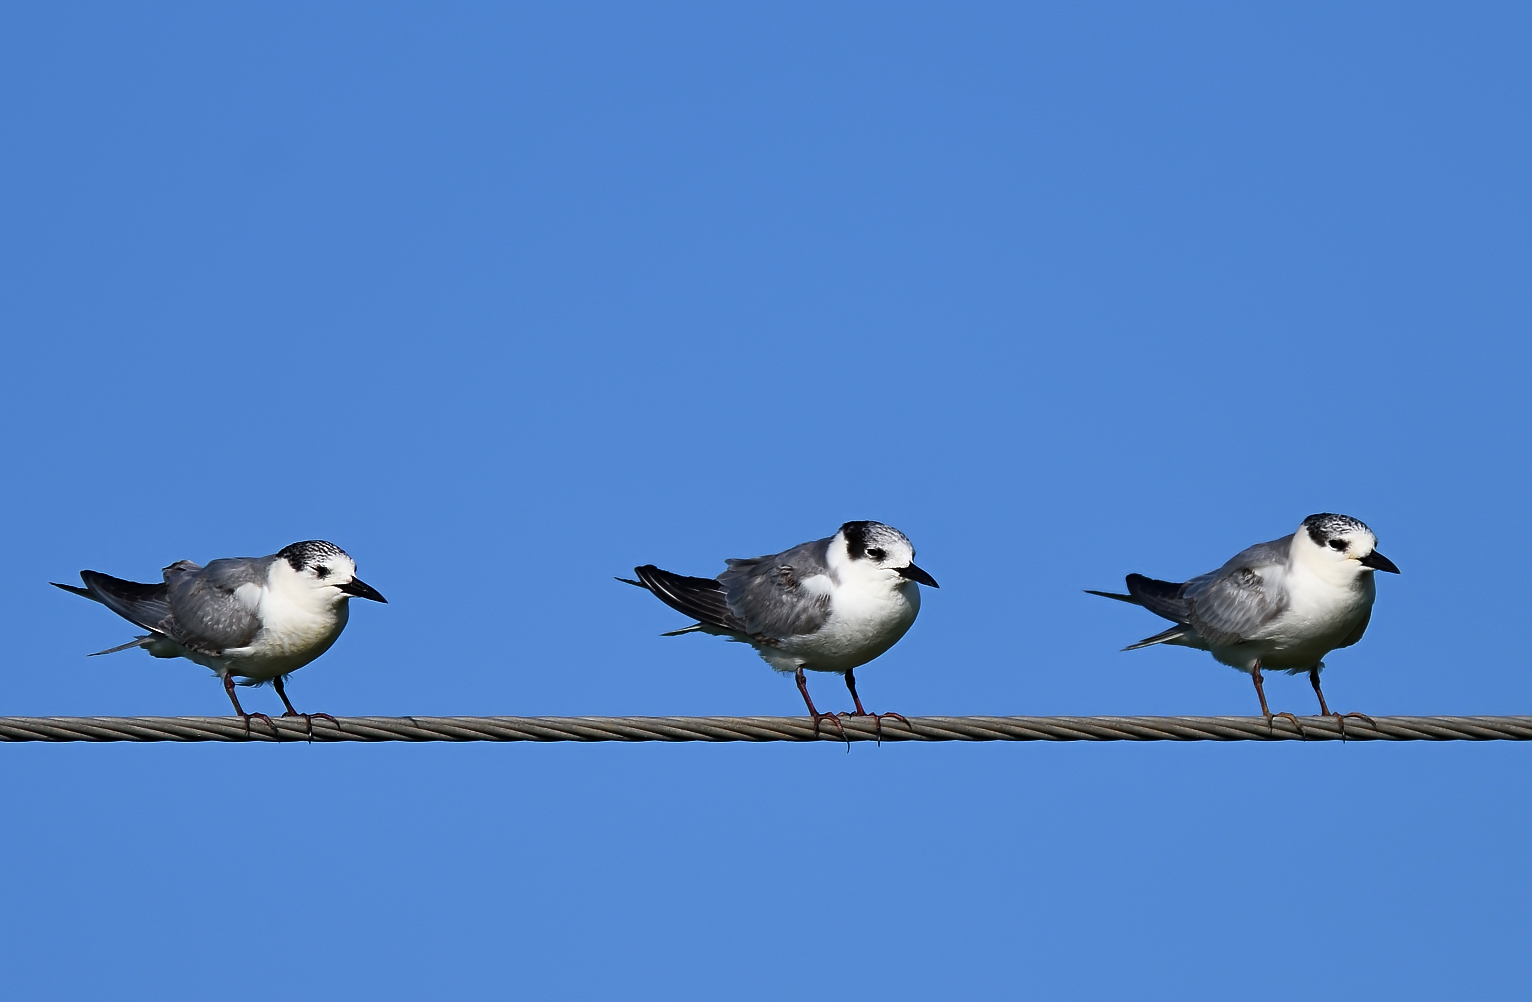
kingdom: Animalia
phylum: Chordata
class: Aves
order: Charadriiformes
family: Laridae
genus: Chlidonias
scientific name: Chlidonias hybrida
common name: Whiskered tern
